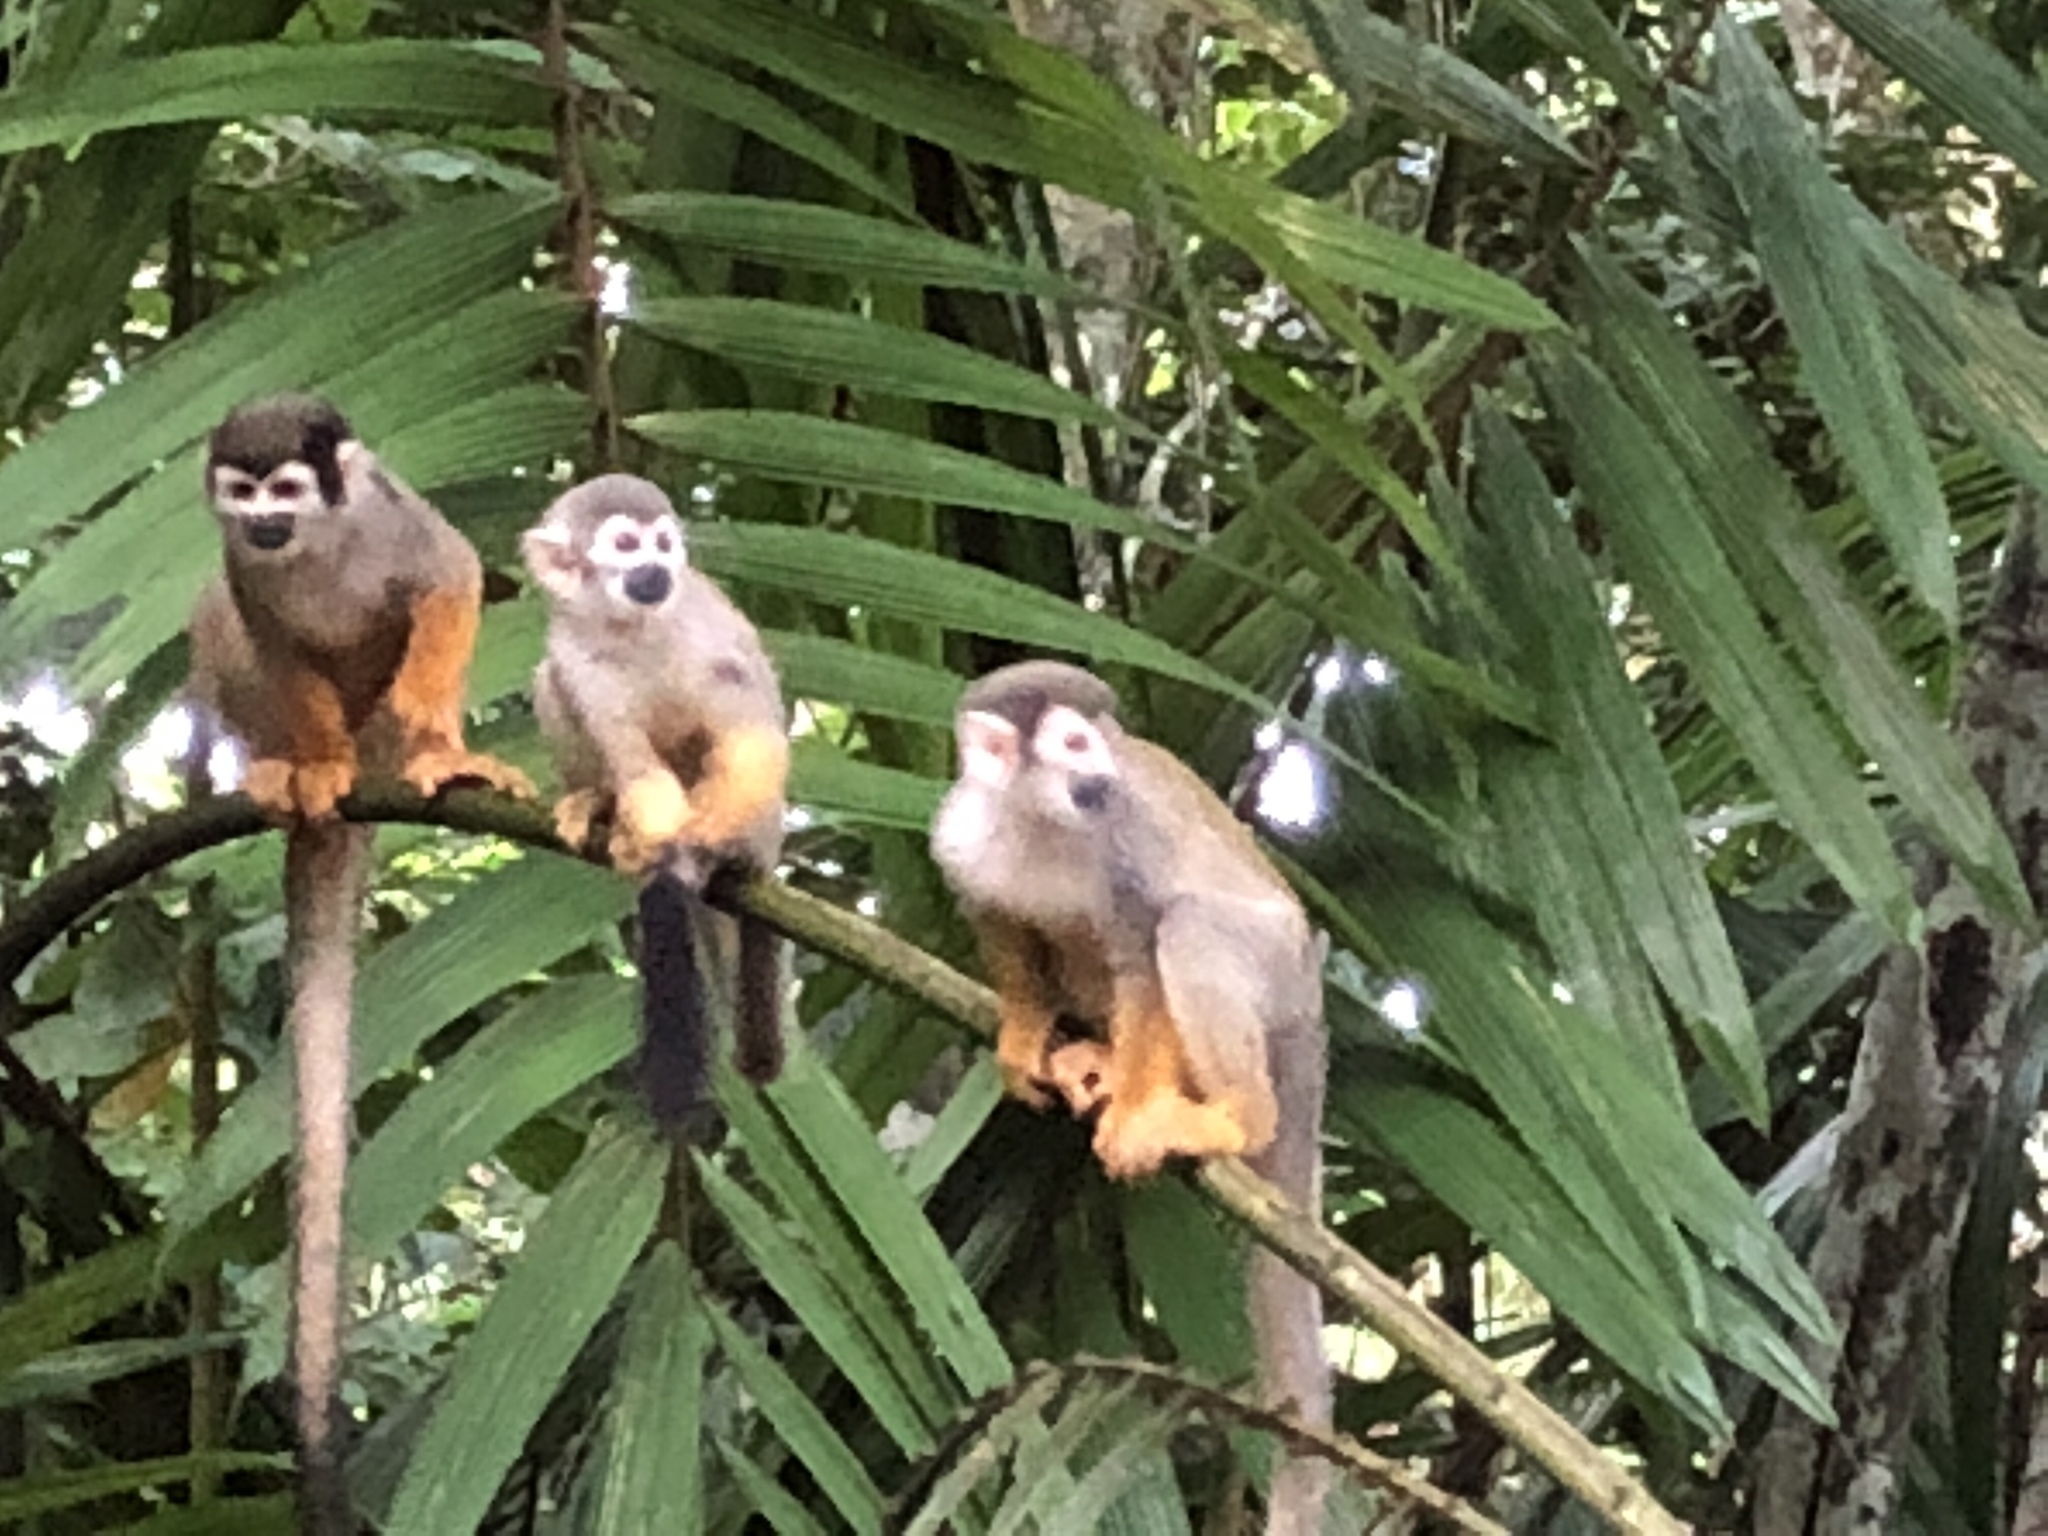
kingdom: Animalia
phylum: Chordata
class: Mammalia
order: Primates
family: Cebidae
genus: Saimiri
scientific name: Saimiri cassiquiarensis
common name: Humboldt’s squirrel monkey
